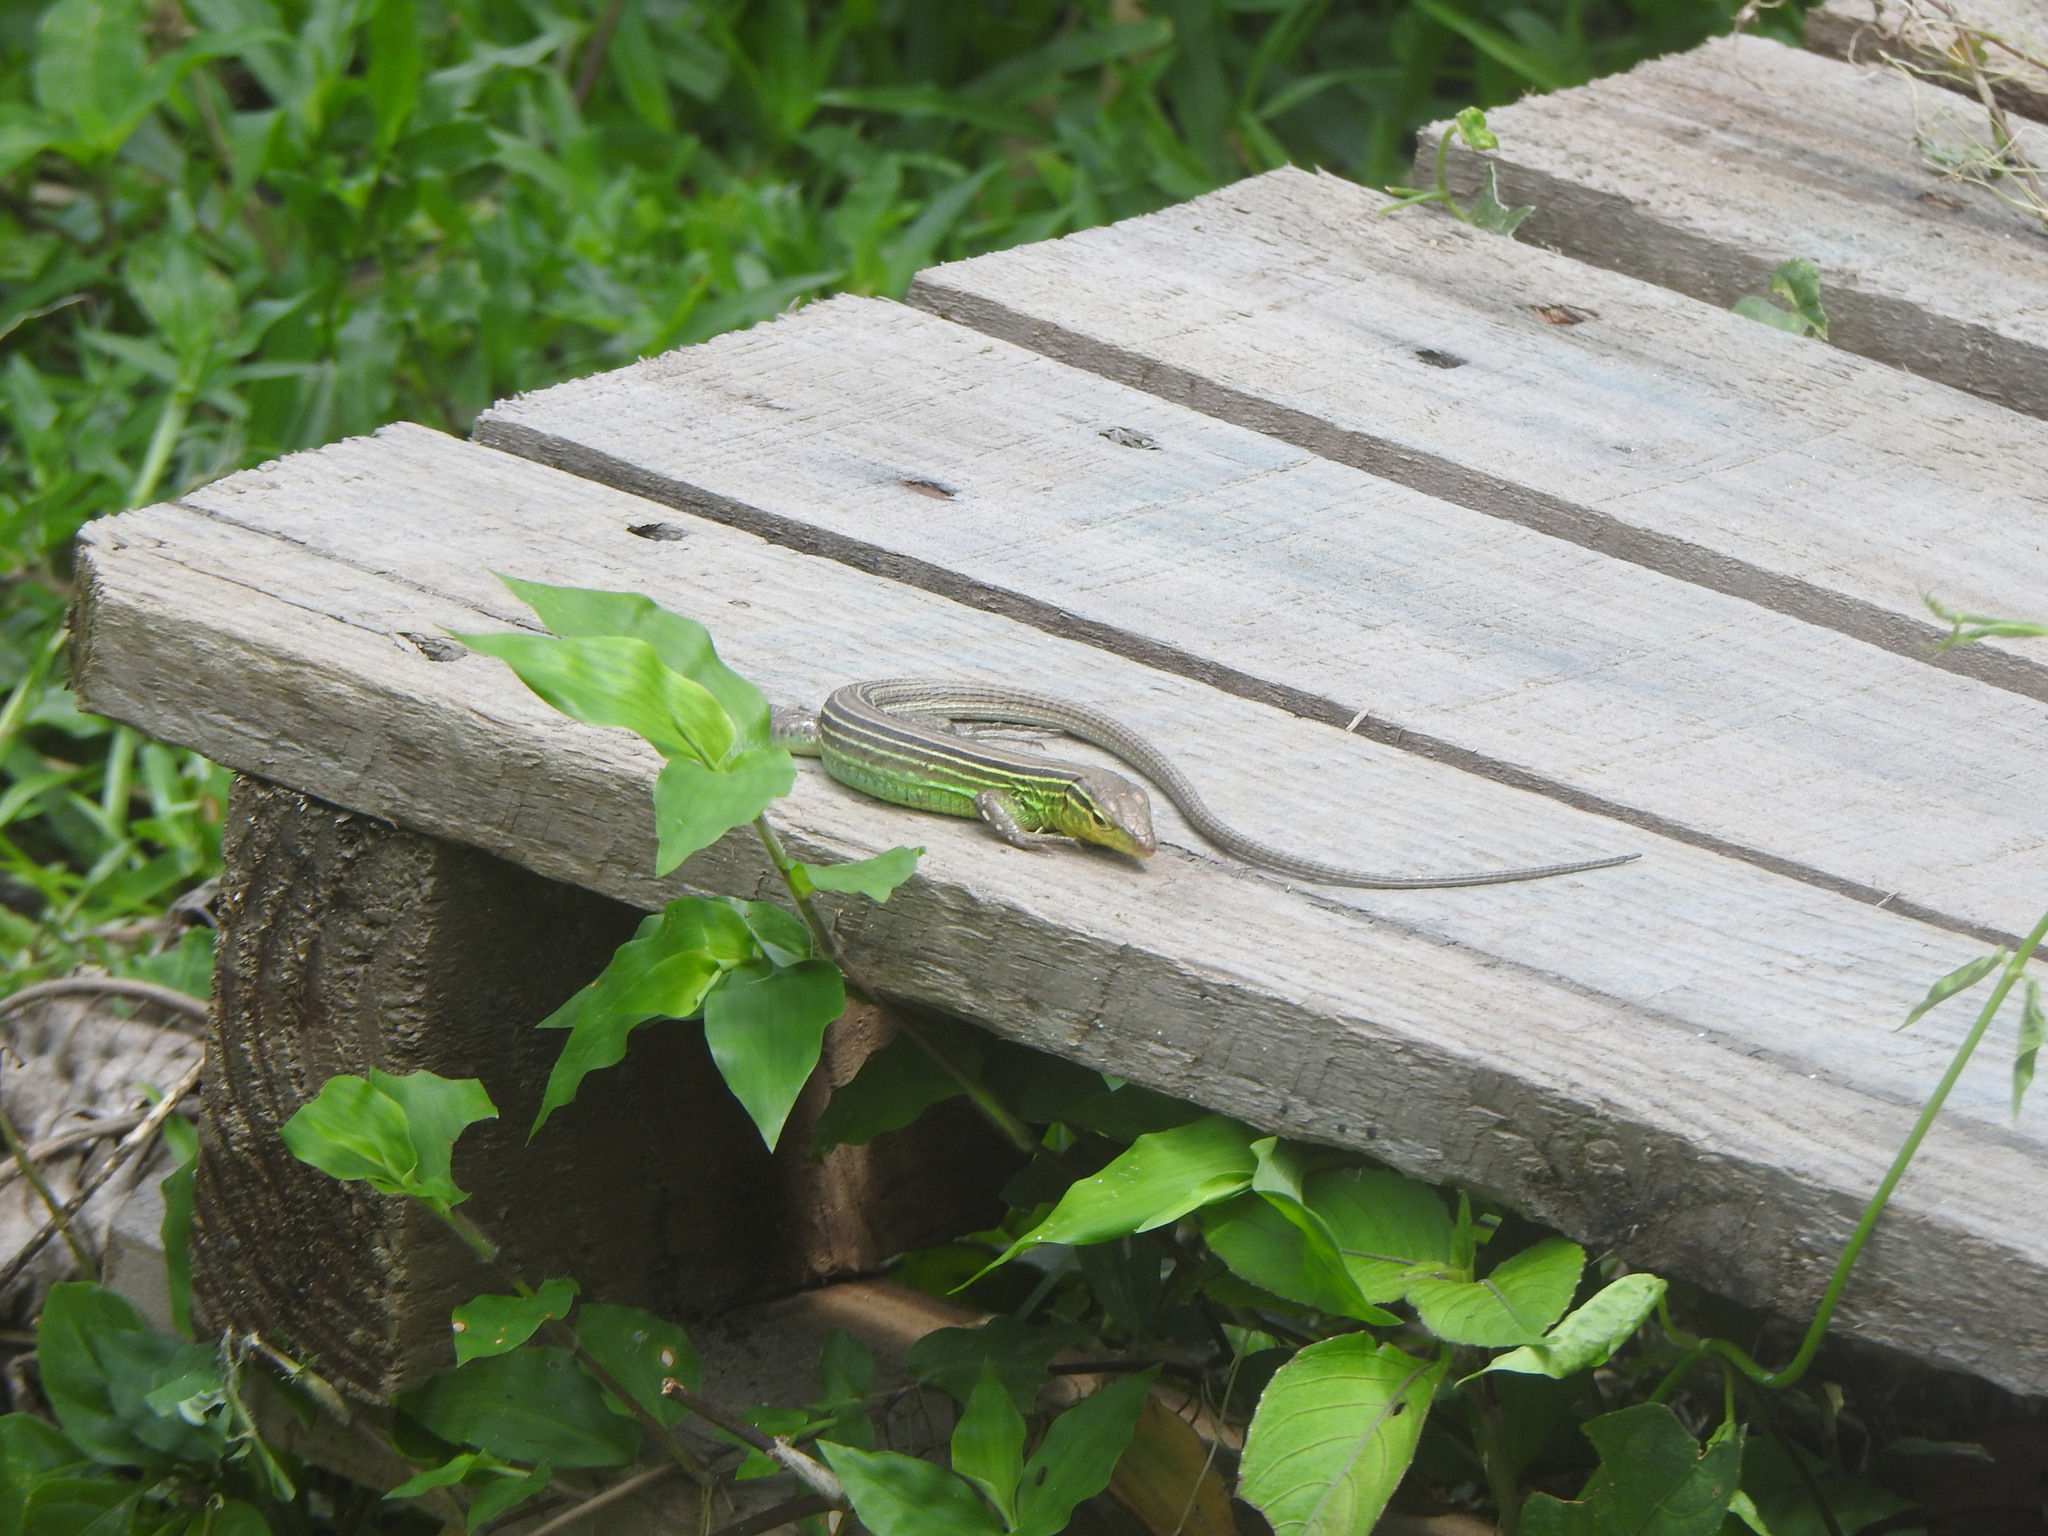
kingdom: Animalia
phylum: Chordata
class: Squamata
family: Teiidae
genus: Cnemidophorus
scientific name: Cnemidophorus gaigei
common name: Gaige’s rainbow lizard
